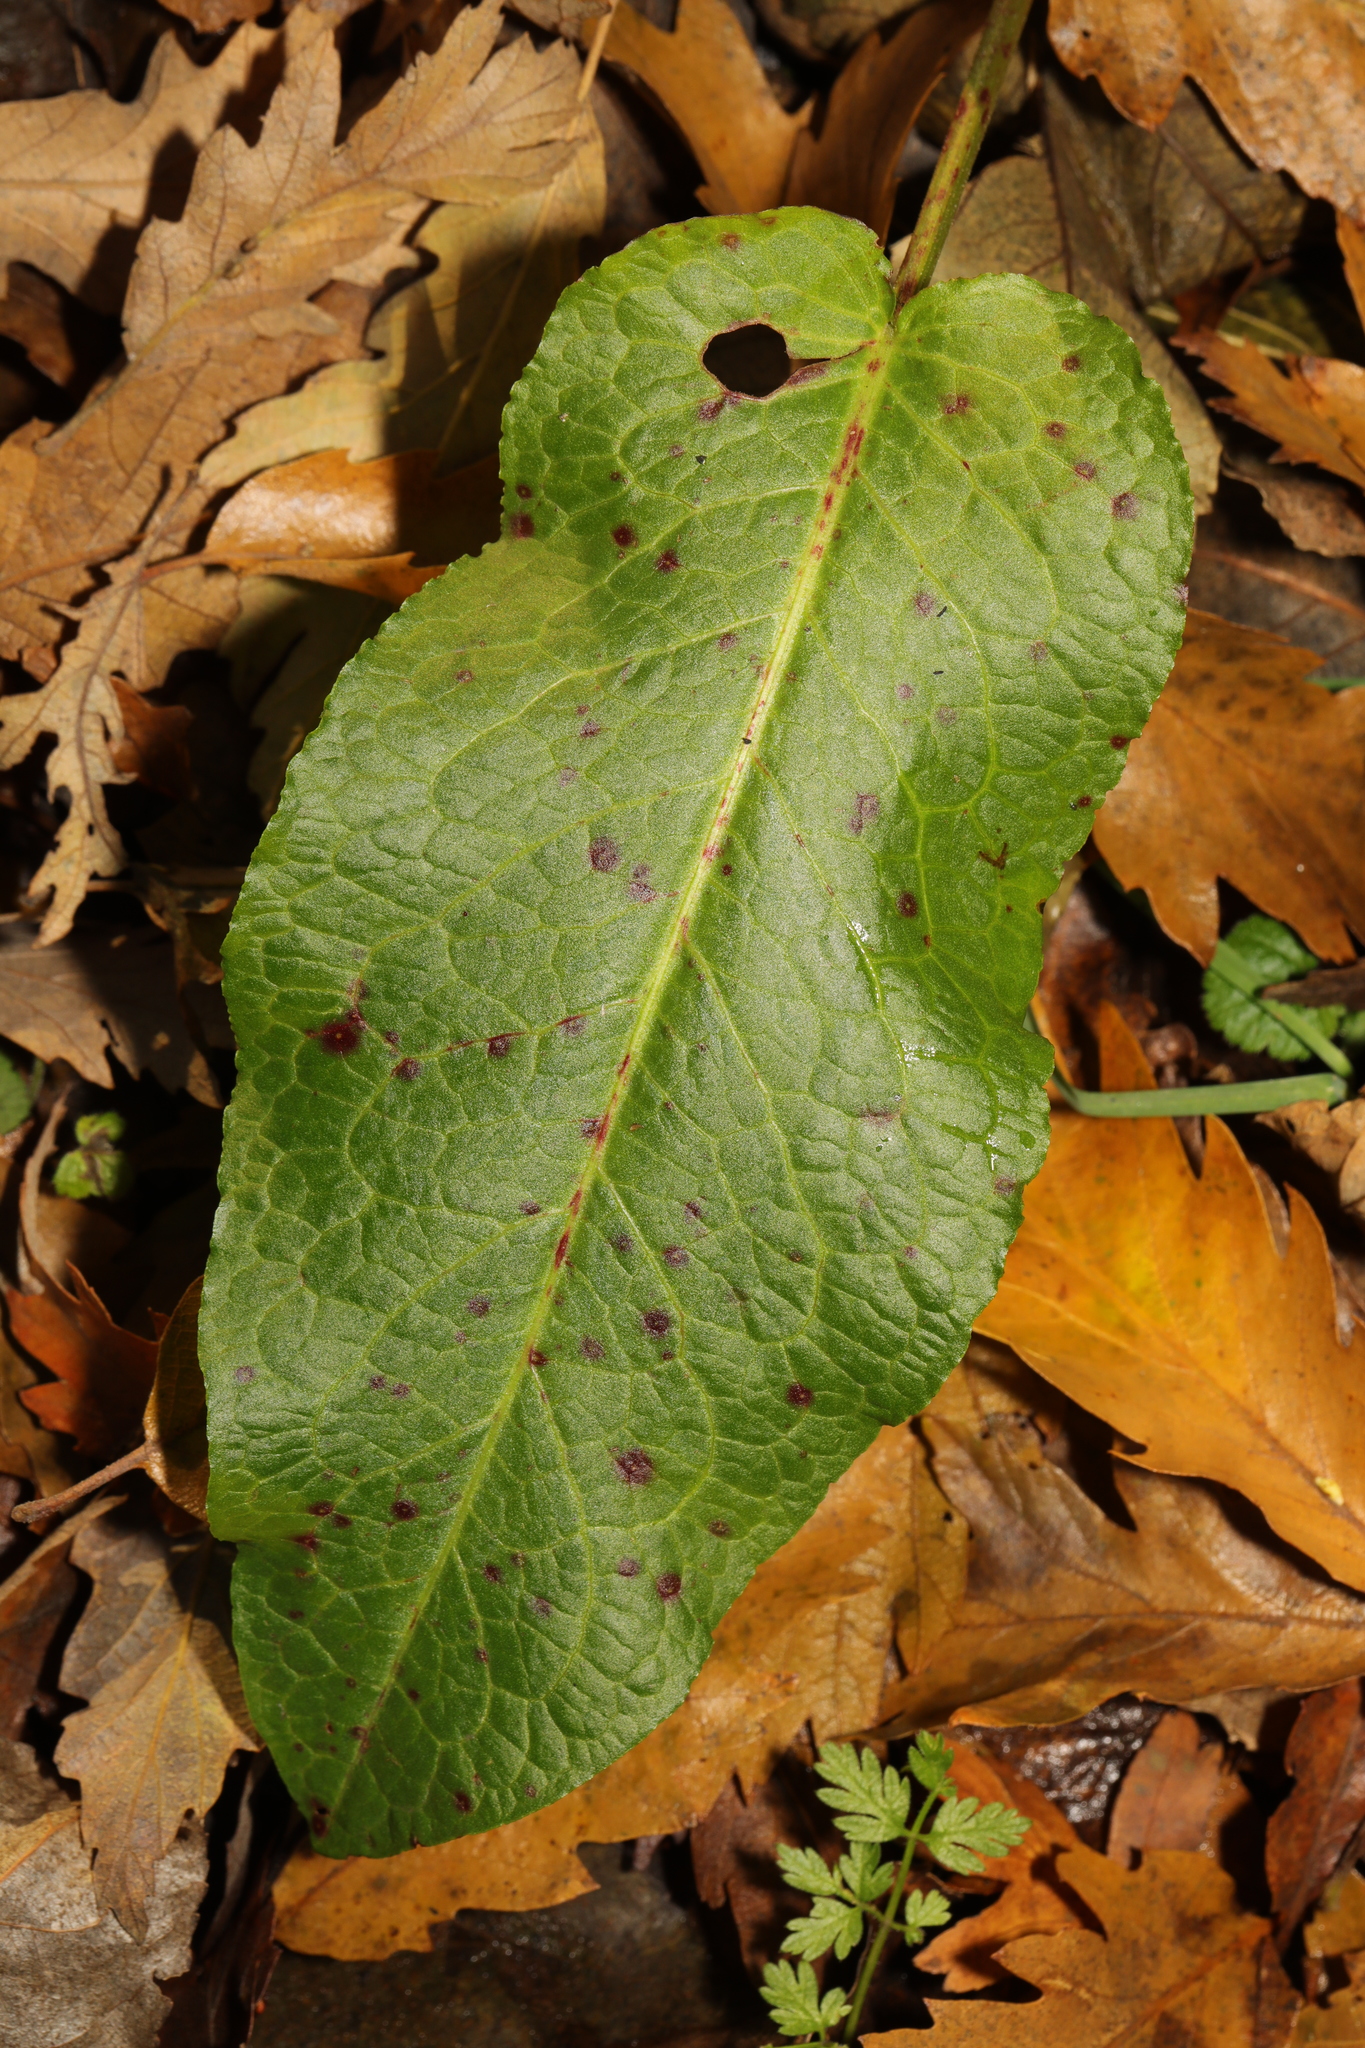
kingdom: Plantae
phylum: Tracheophyta
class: Magnoliopsida
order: Caryophyllales
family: Polygonaceae
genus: Rumex
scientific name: Rumex obtusifolius
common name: Bitter dock
